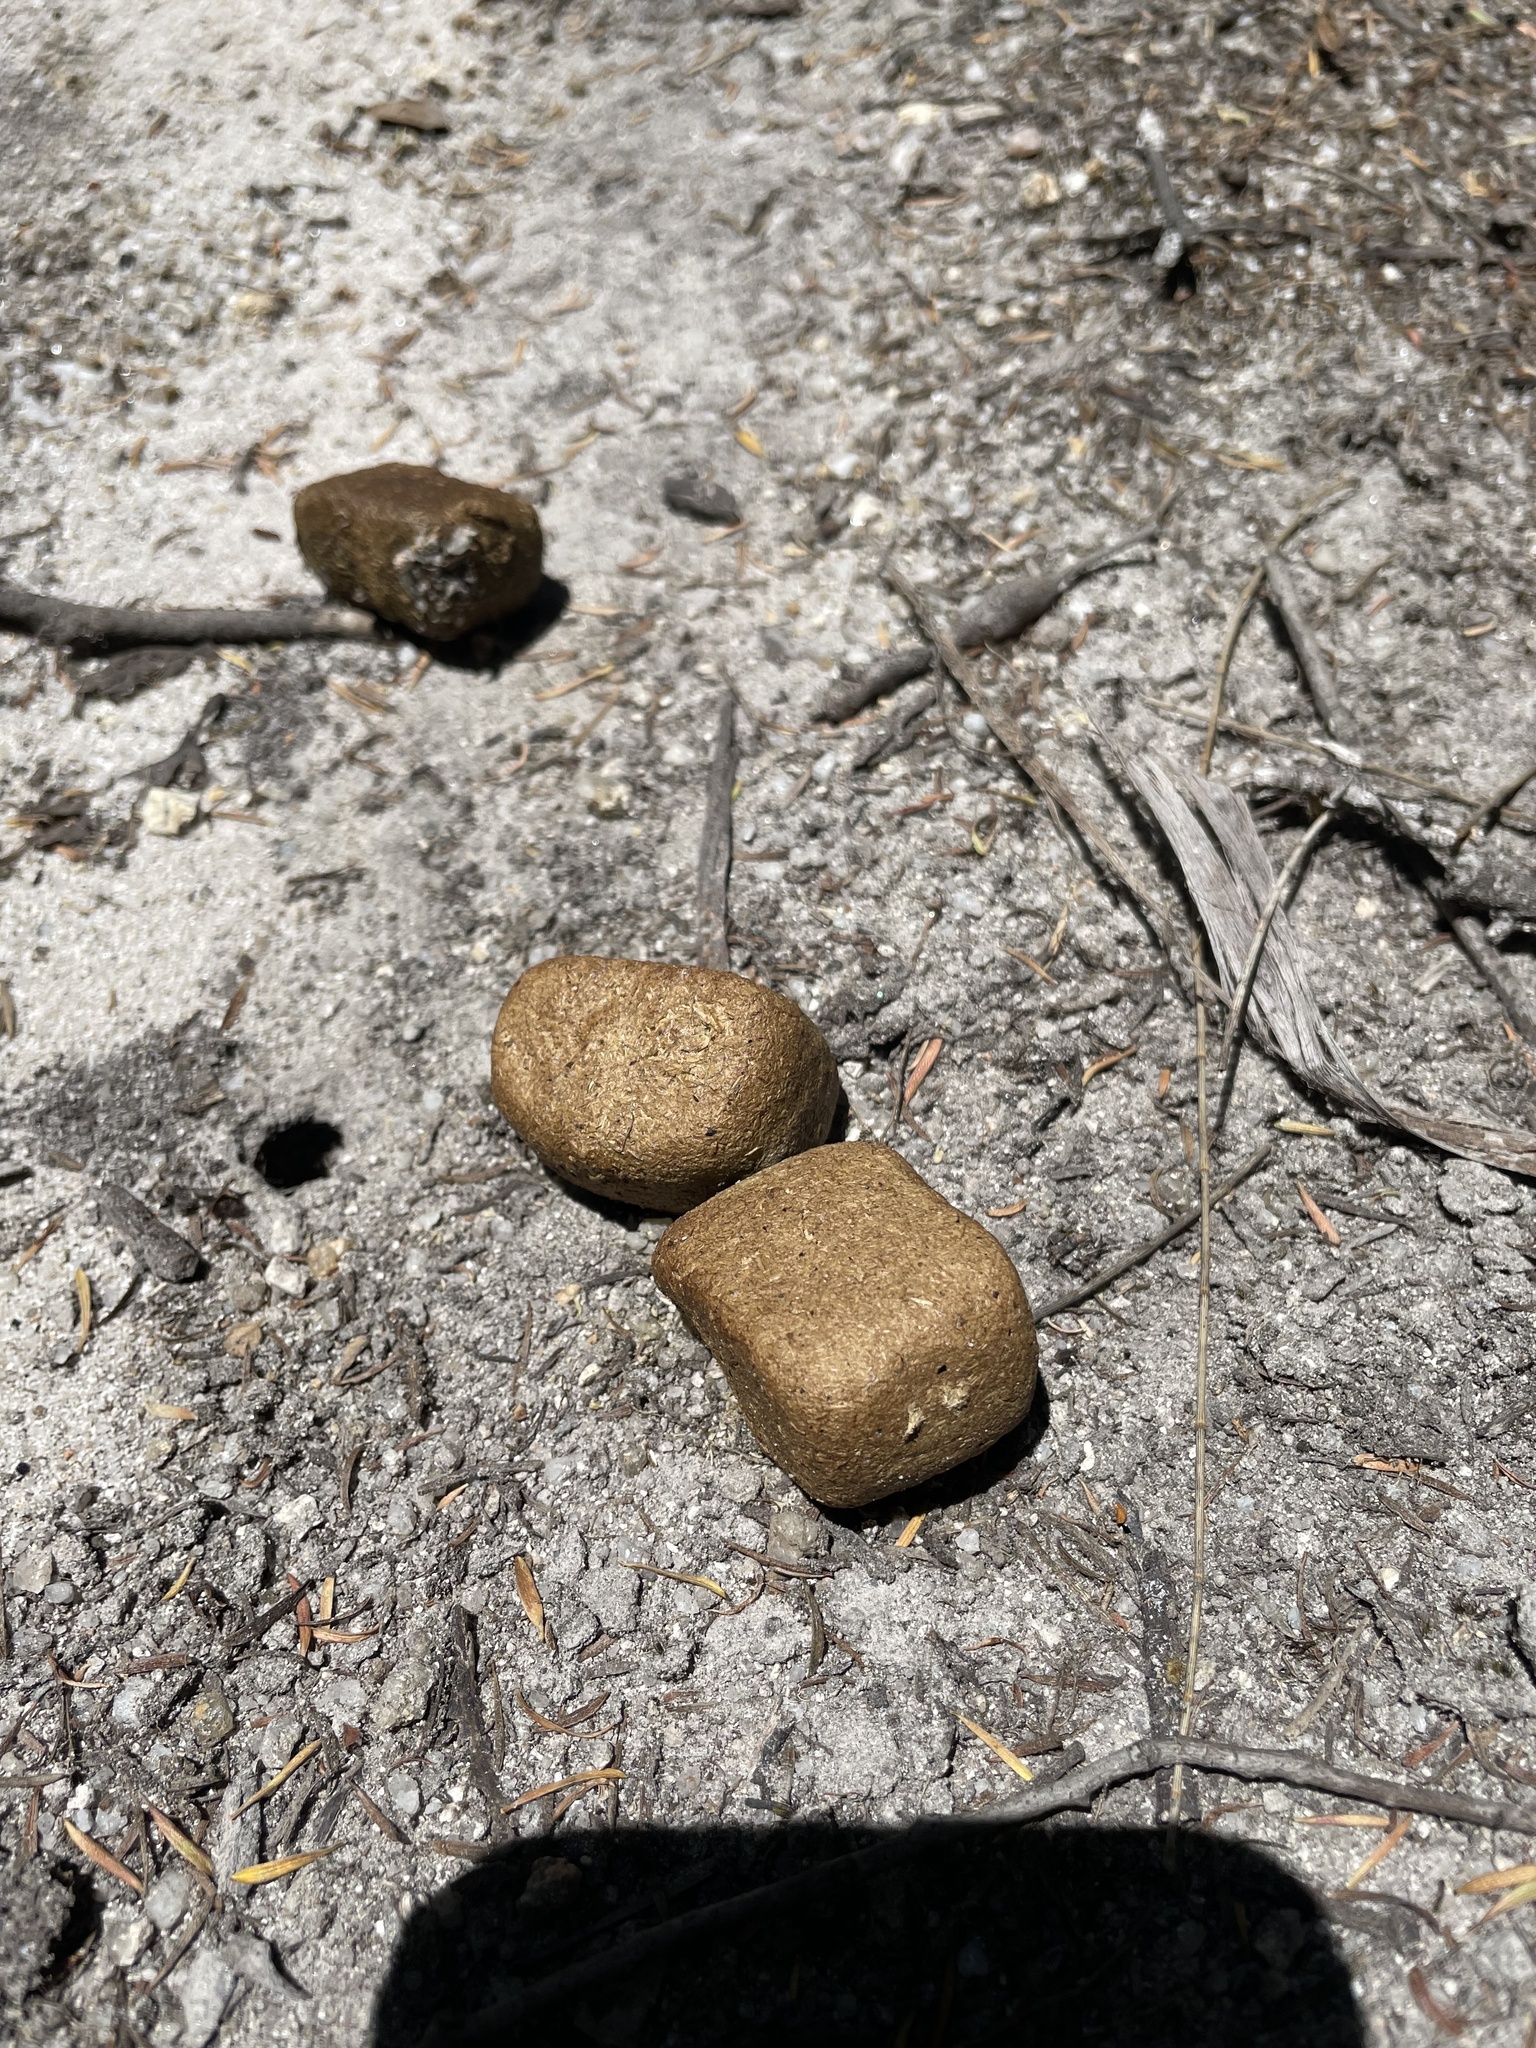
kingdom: Animalia
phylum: Chordata
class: Mammalia
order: Diprotodontia
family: Vombatidae
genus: Vombatus
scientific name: Vombatus ursinus
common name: Common wombat
